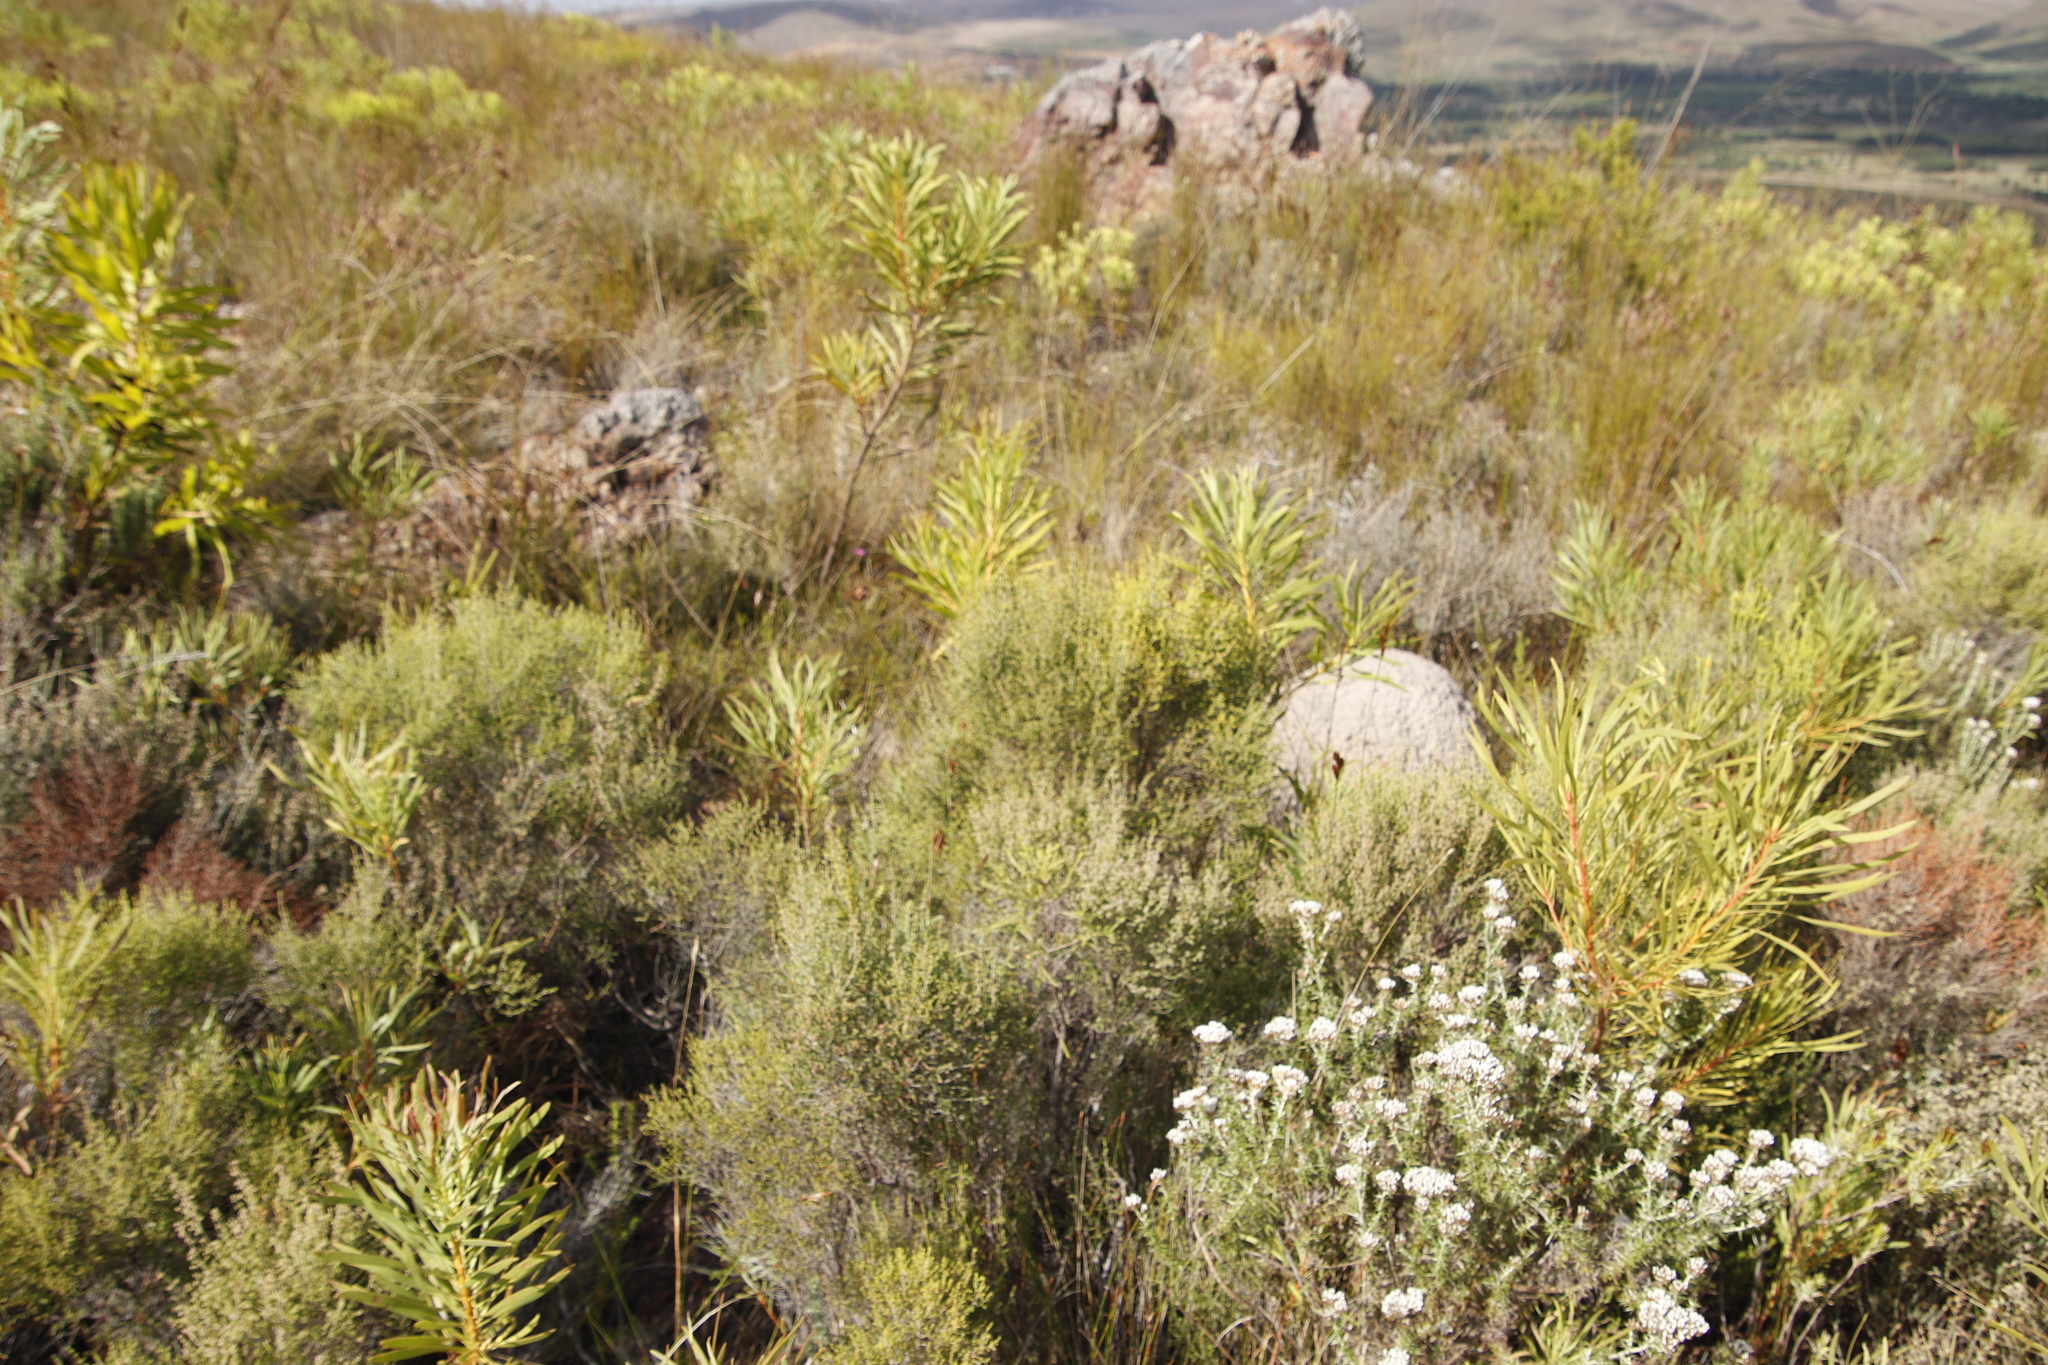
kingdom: Plantae
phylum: Tracheophyta
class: Magnoliopsida
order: Proteales
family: Proteaceae
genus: Protea
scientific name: Protea repens
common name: Sugarbush
